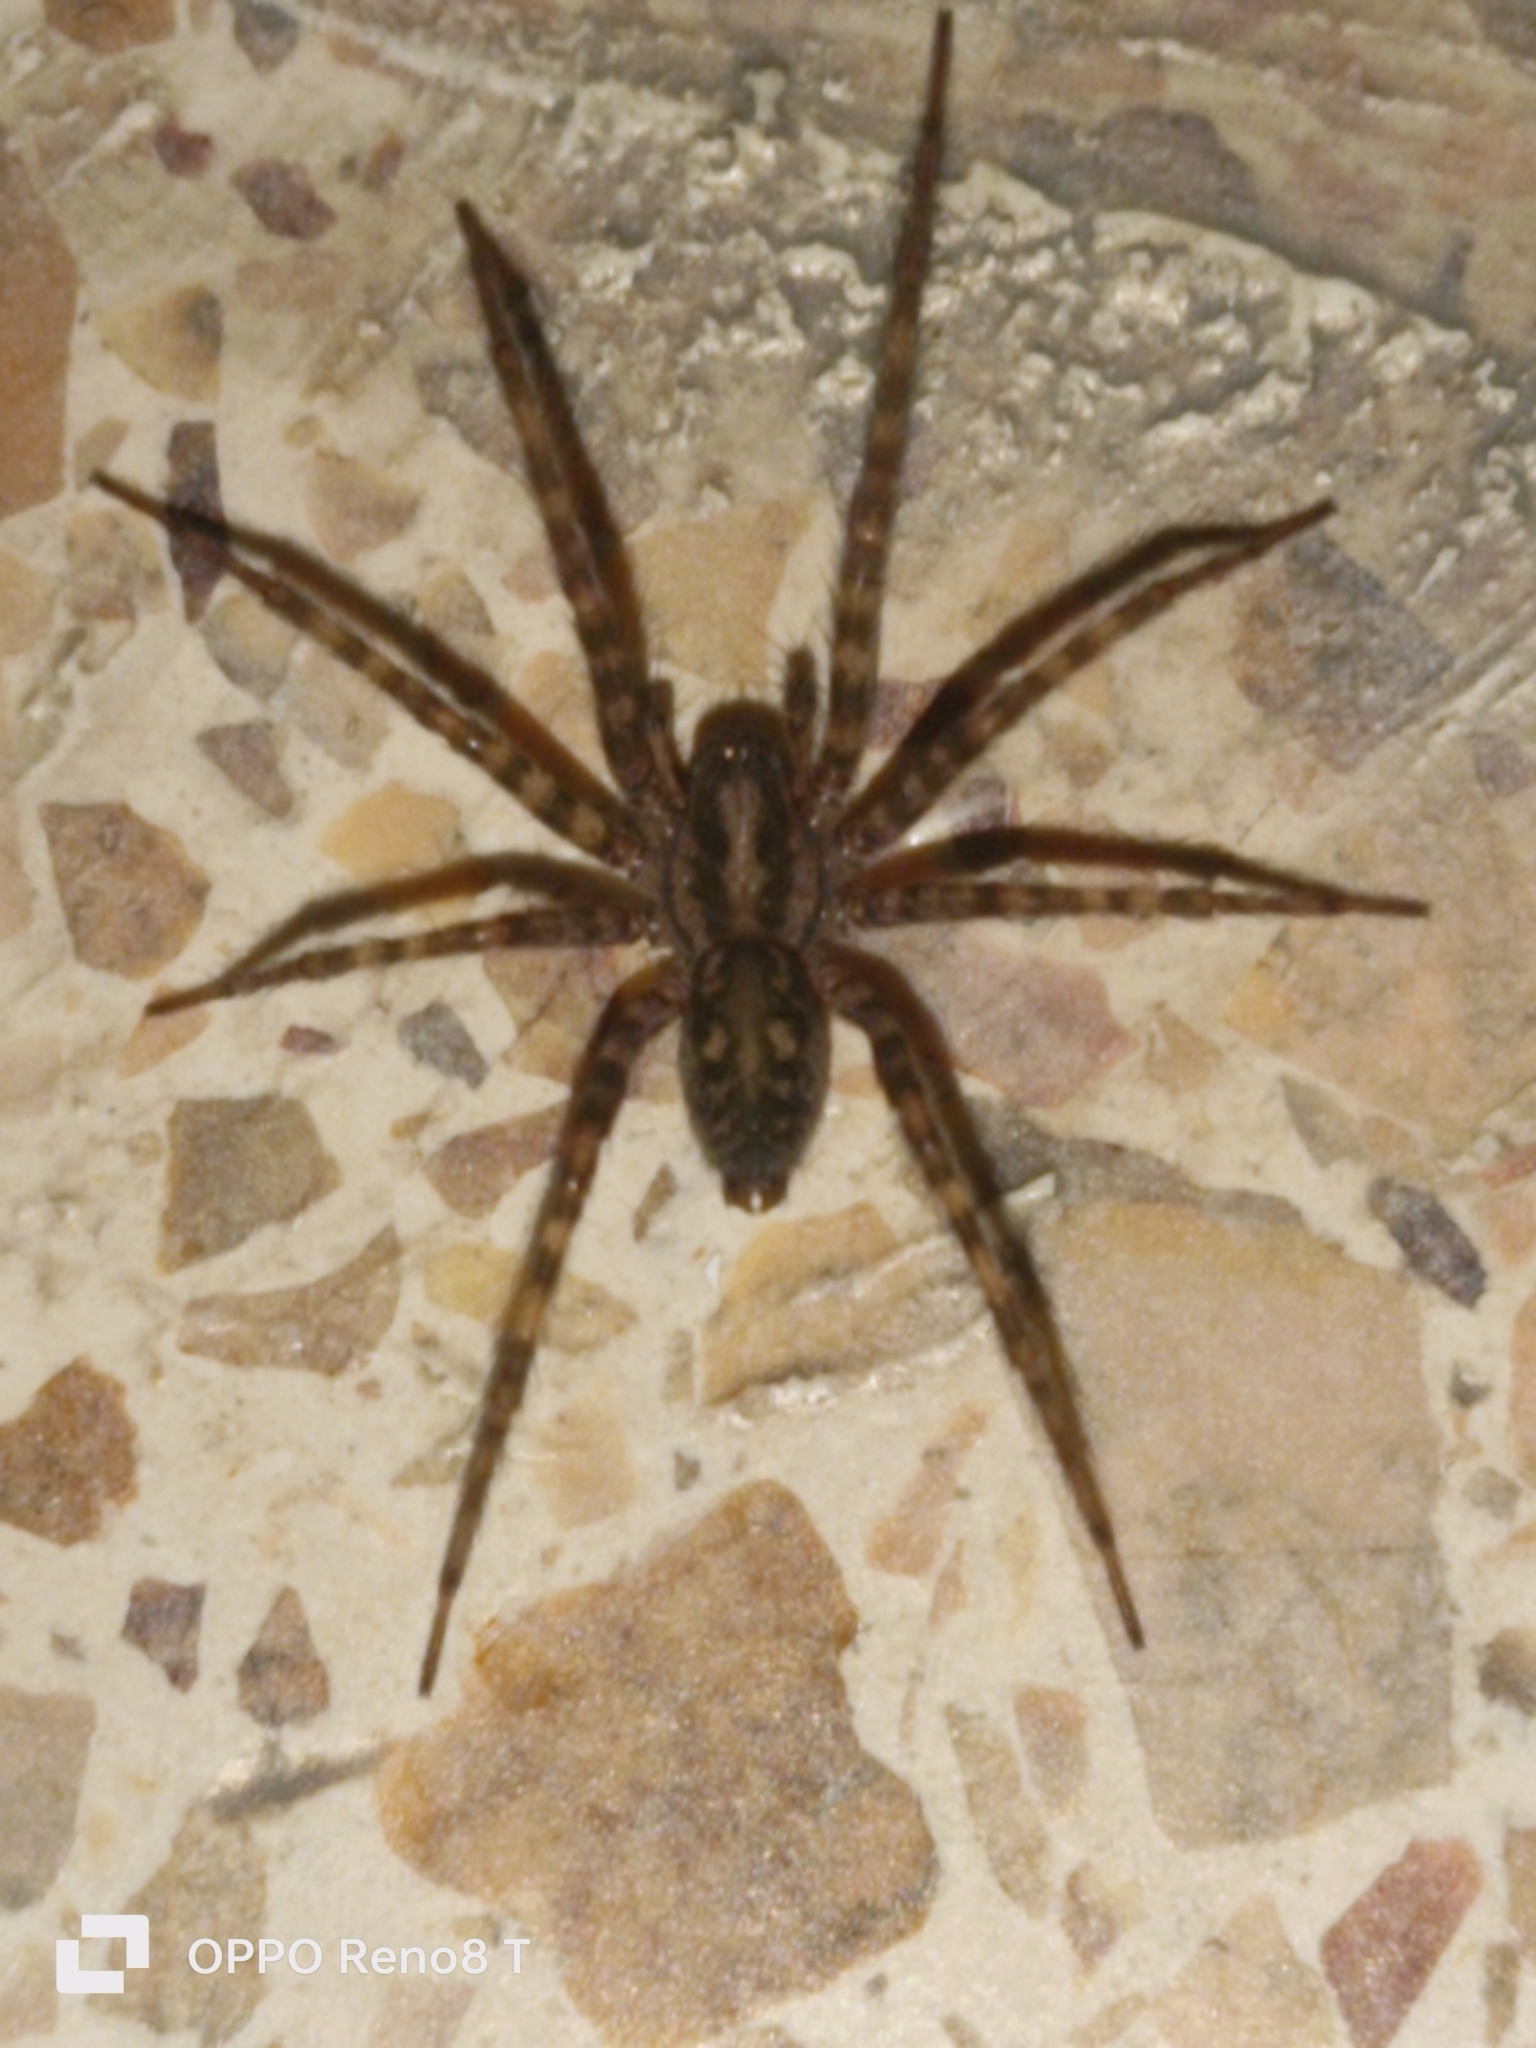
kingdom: Animalia
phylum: Arthropoda
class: Arachnida
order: Araneae
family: Agelenidae
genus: Tegenaria
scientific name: Tegenaria domestica
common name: Barn funnel weaver
